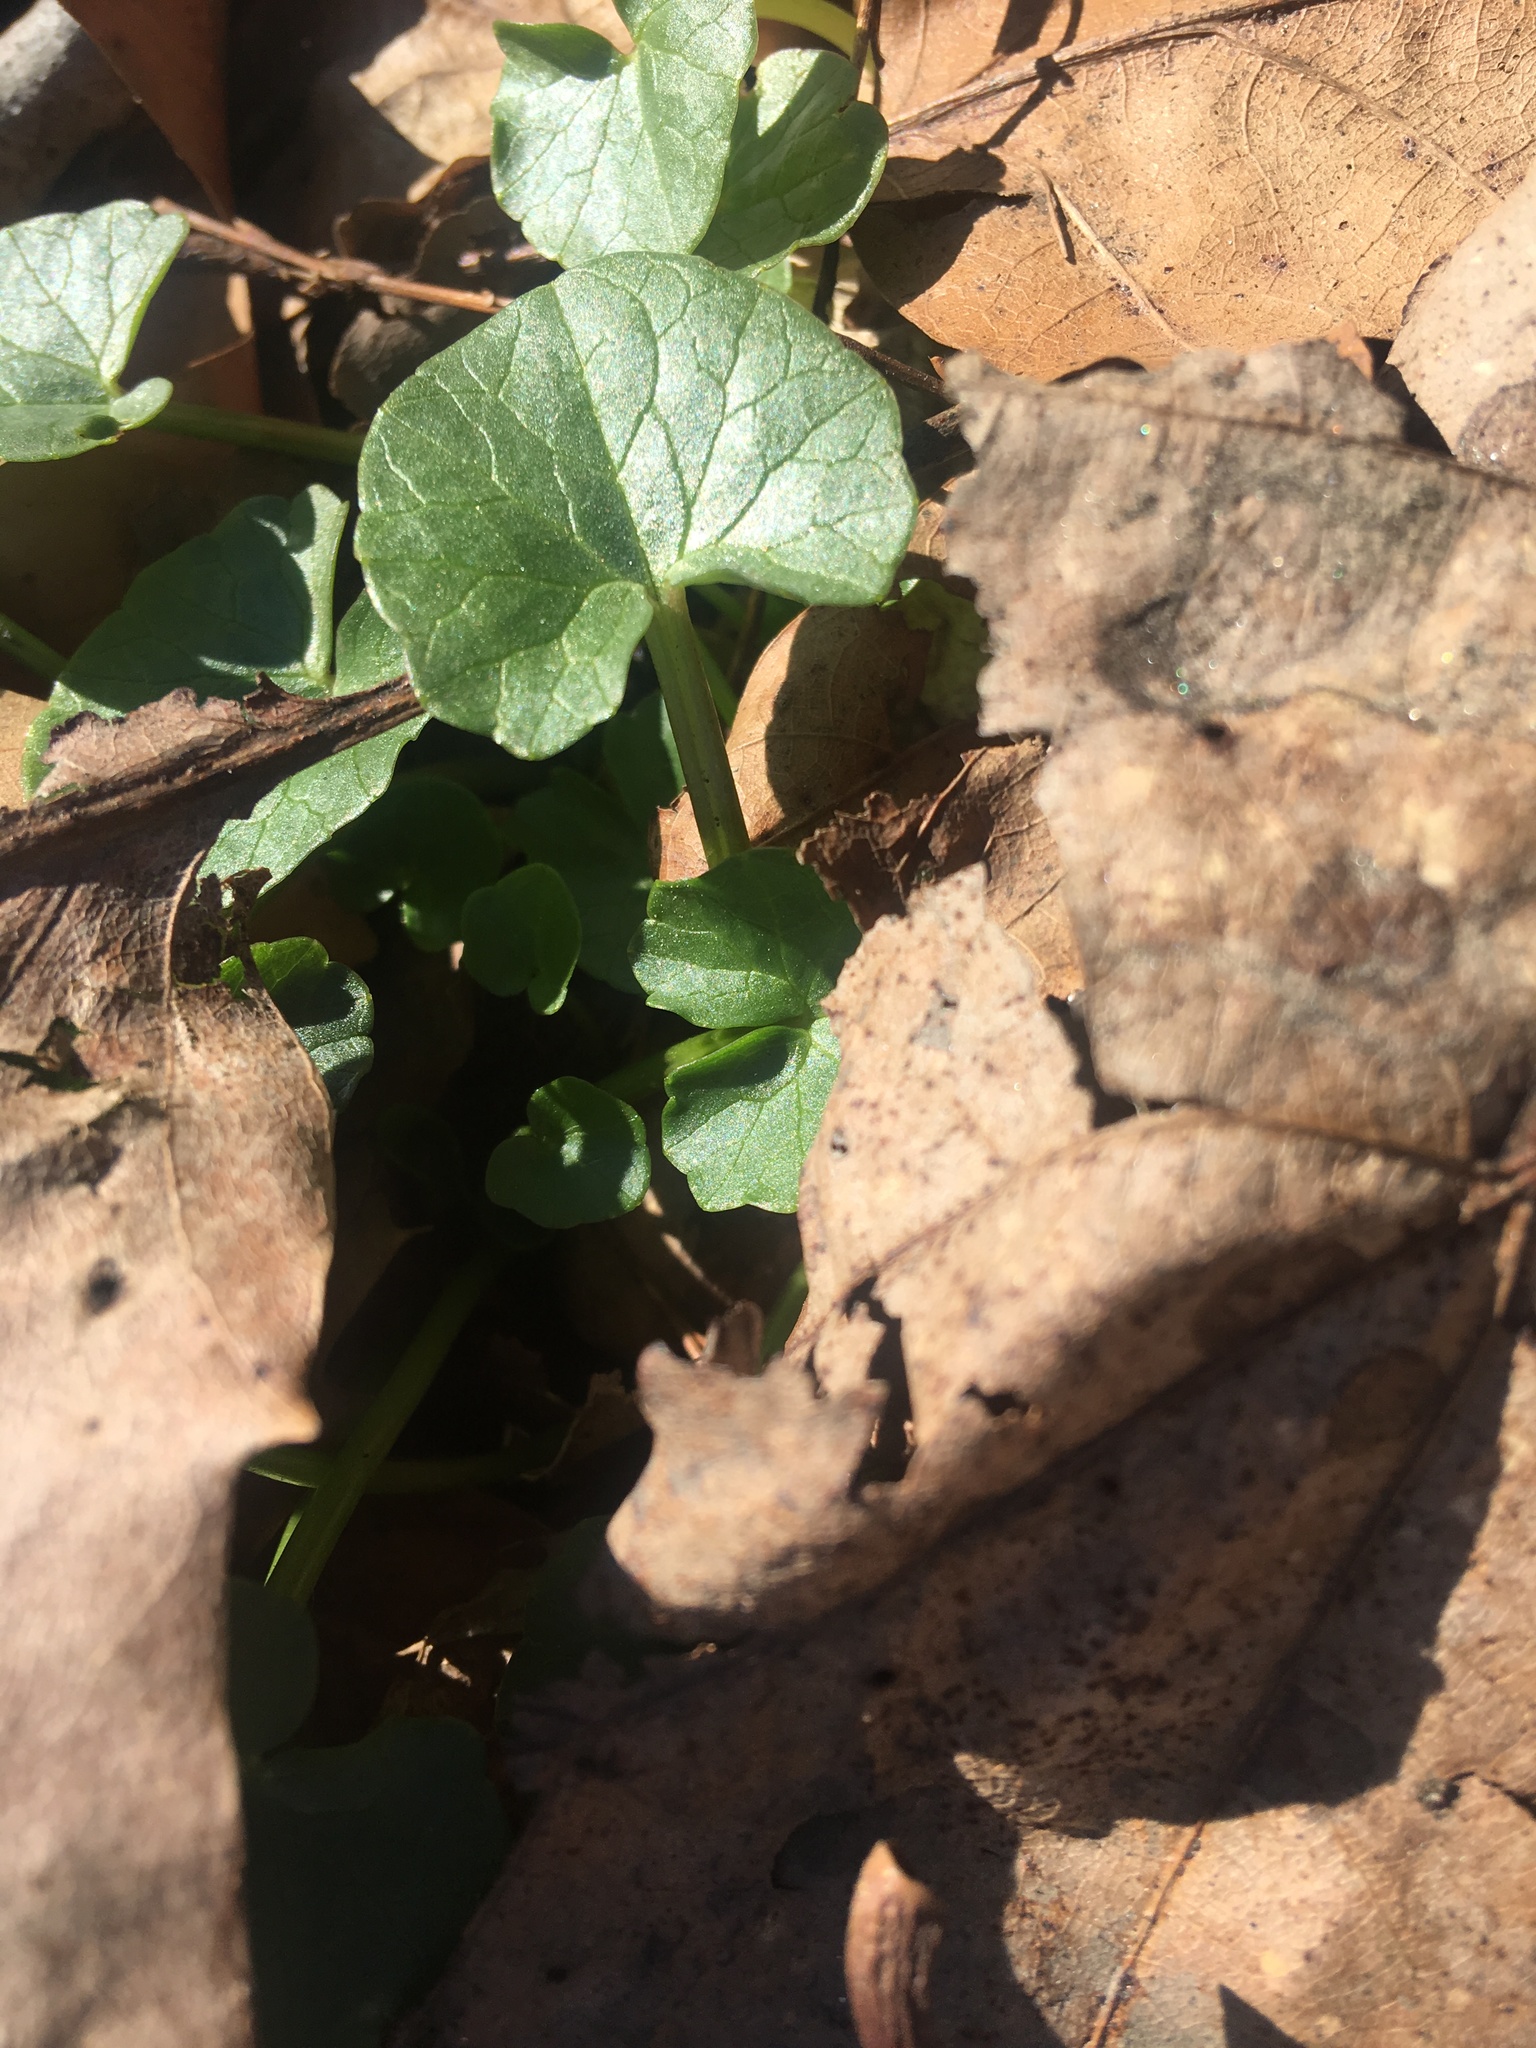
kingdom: Plantae
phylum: Tracheophyta
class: Magnoliopsida
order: Ranunculales
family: Ranunculaceae
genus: Ficaria
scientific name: Ficaria verna
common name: Lesser celandine
